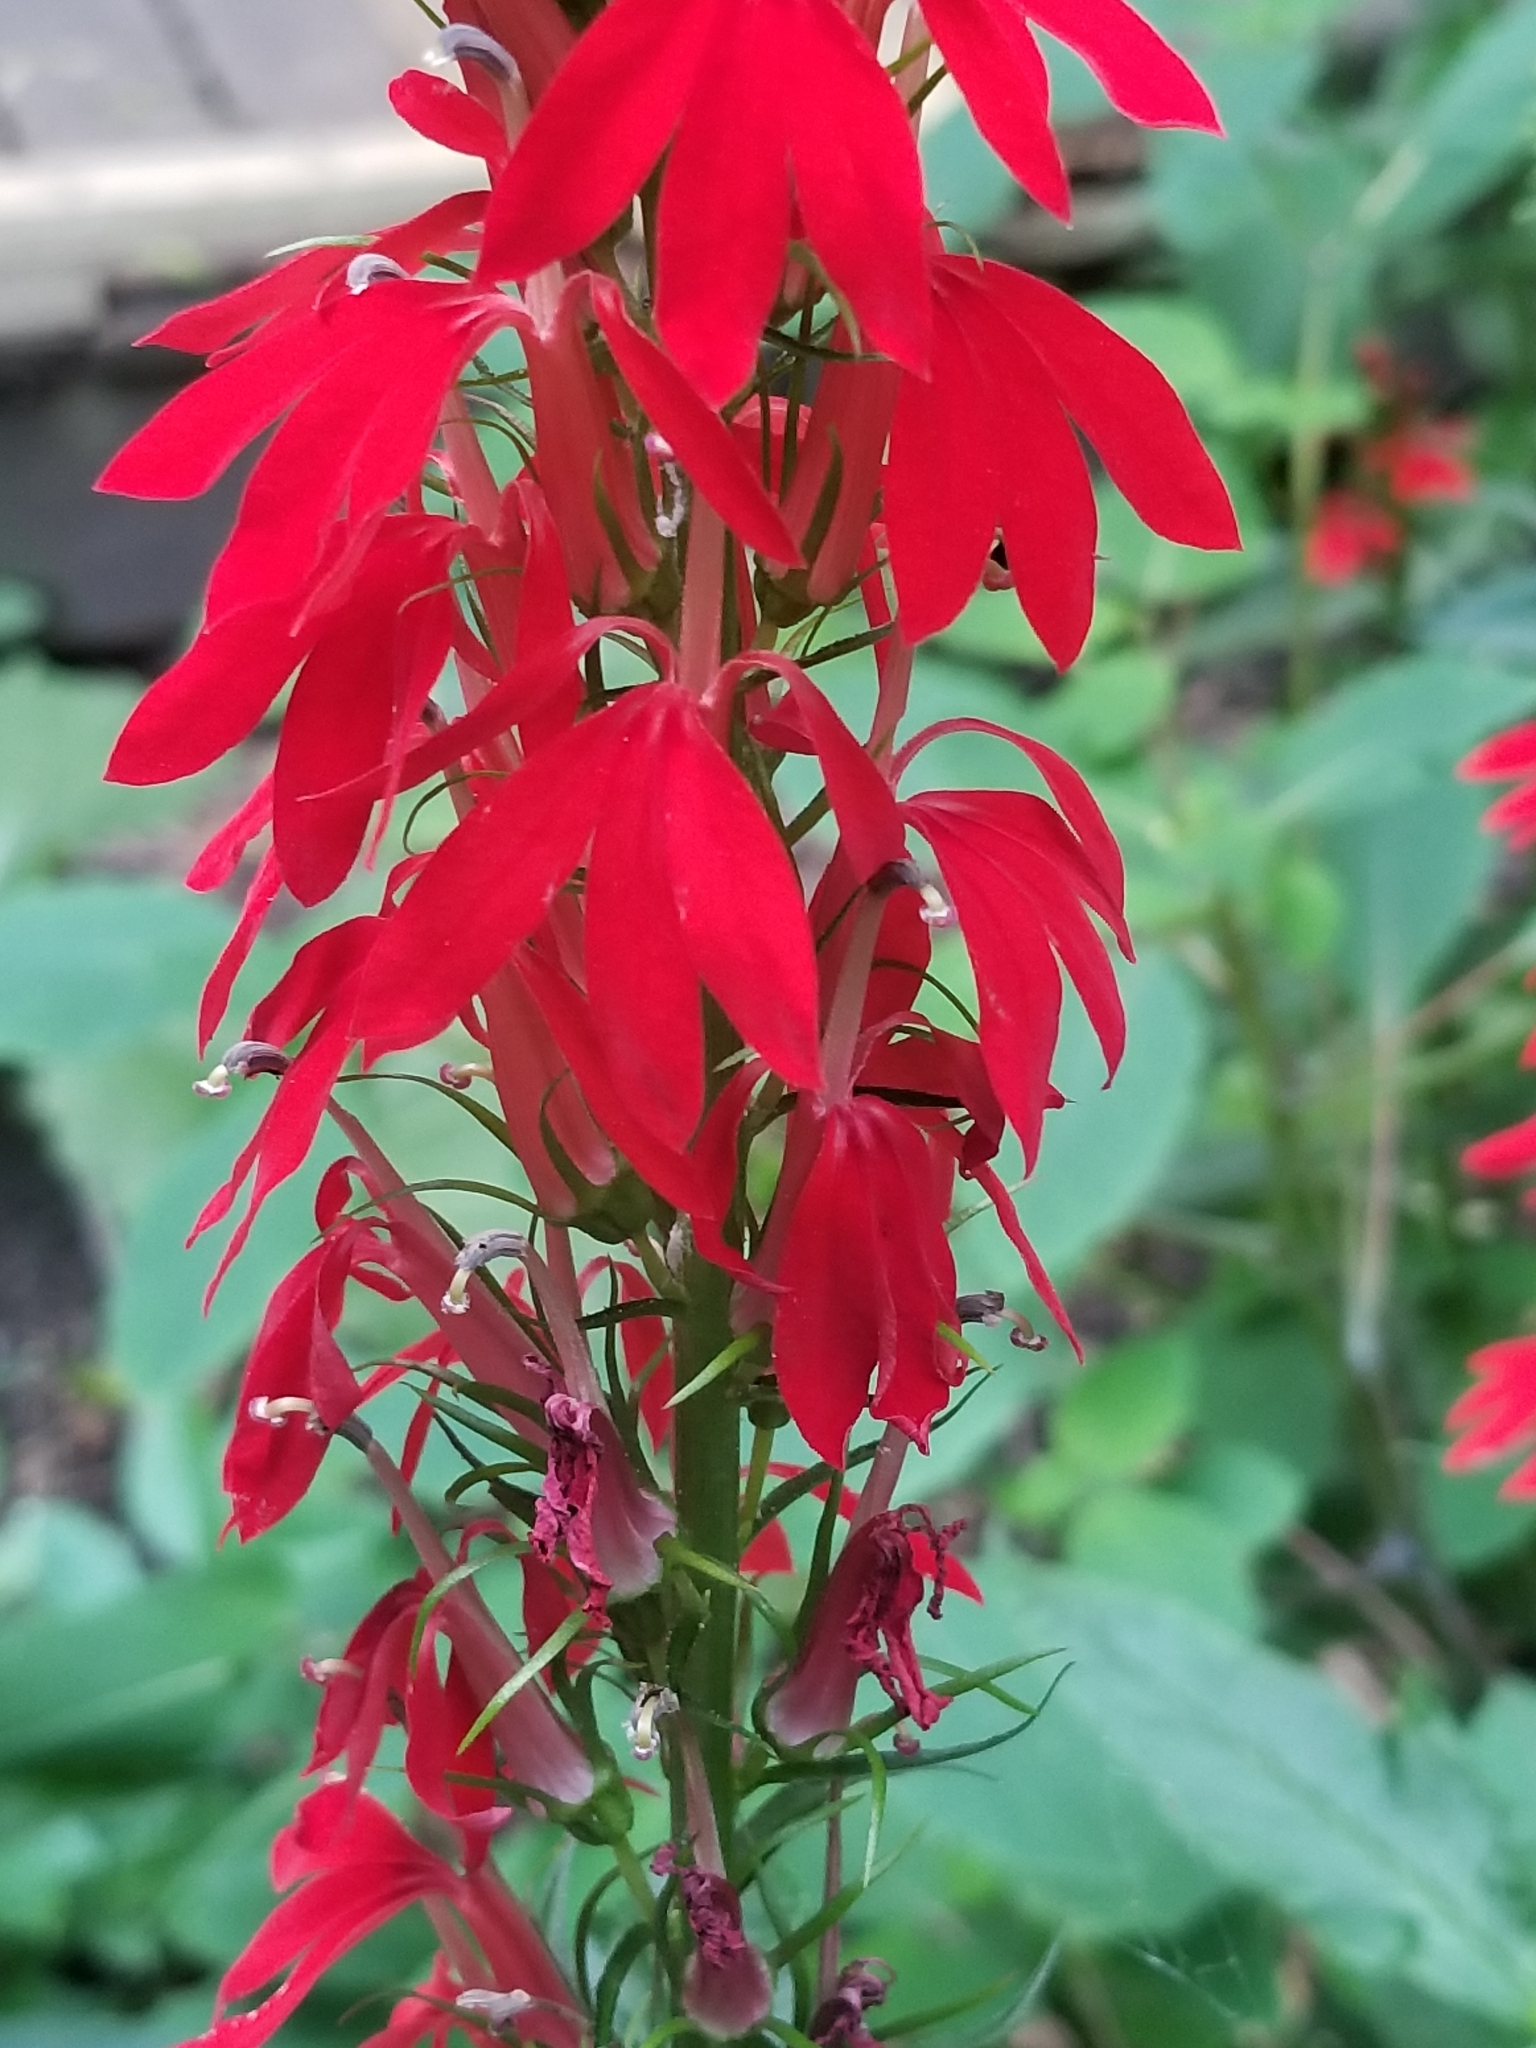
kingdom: Plantae
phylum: Tracheophyta
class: Magnoliopsida
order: Asterales
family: Campanulaceae
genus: Lobelia
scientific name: Lobelia cardinalis
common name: Cardinal flower
